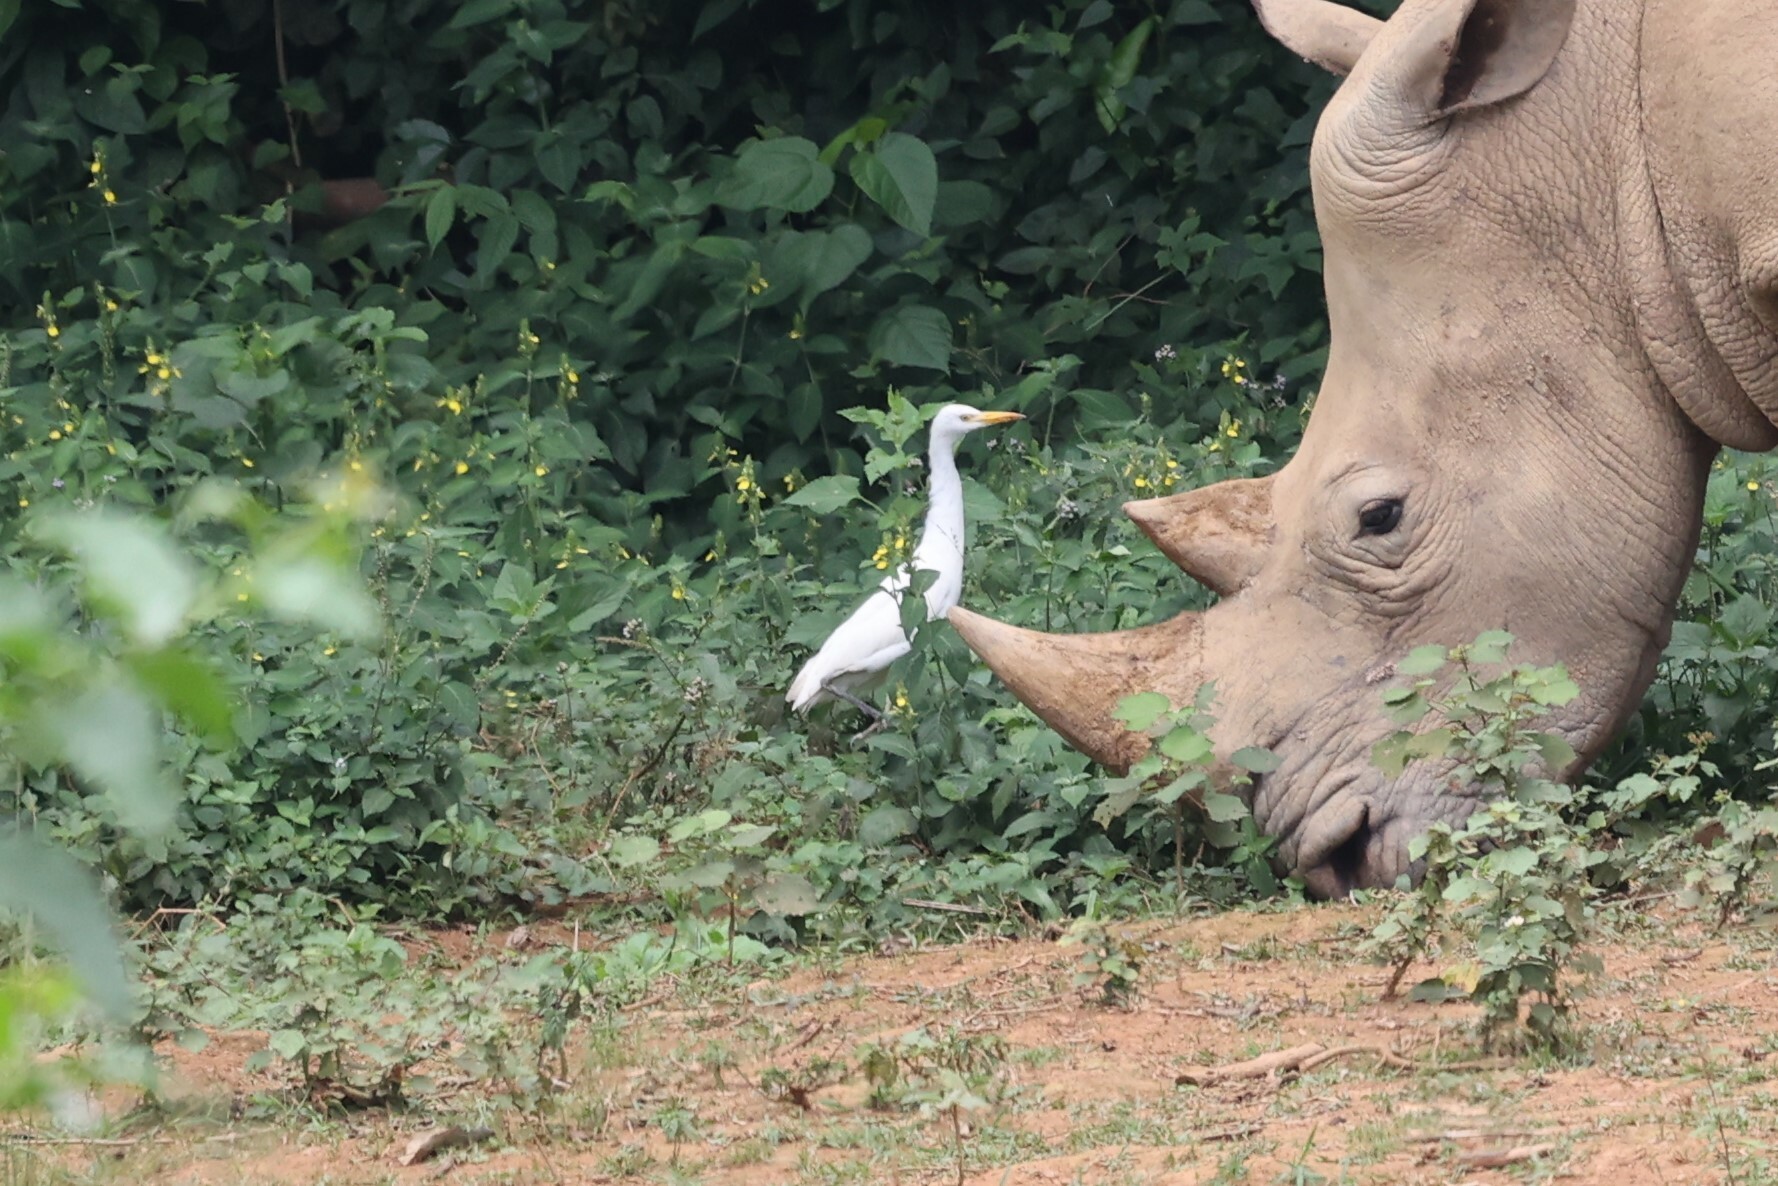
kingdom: Animalia
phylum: Chordata
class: Aves
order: Pelecaniformes
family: Ardeidae
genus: Bubulcus
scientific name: Bubulcus ibis
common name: Cattle egret
